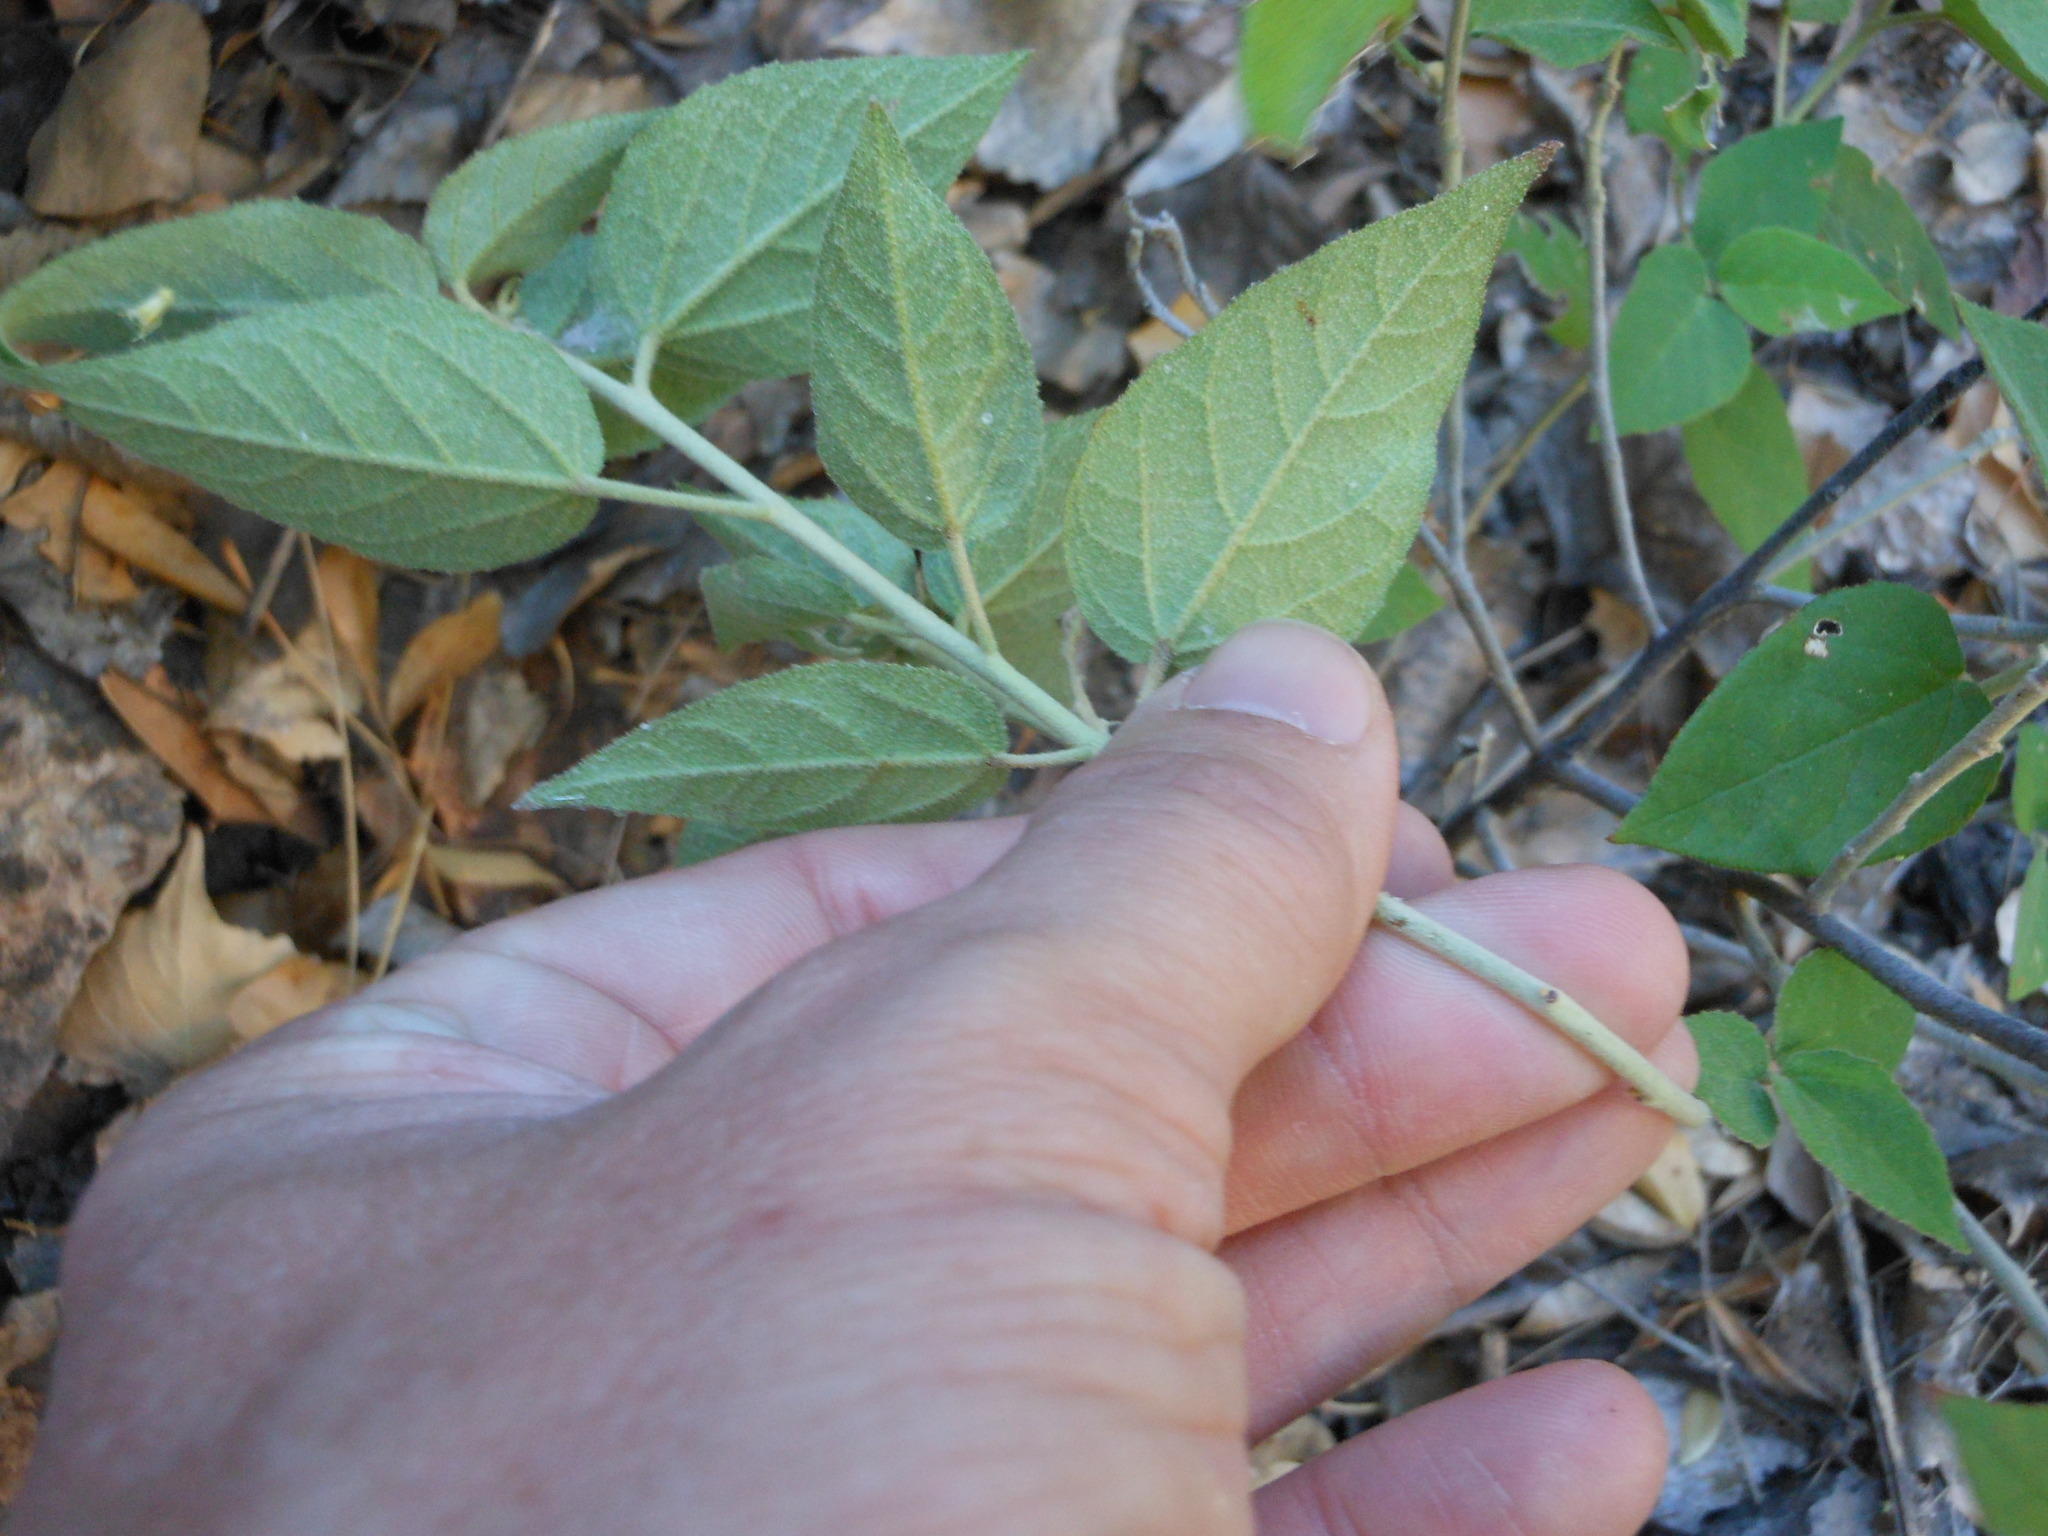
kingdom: Plantae
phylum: Tracheophyta
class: Magnoliopsida
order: Malpighiales
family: Euphorbiaceae
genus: Croton
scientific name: Croton fruticulosus
